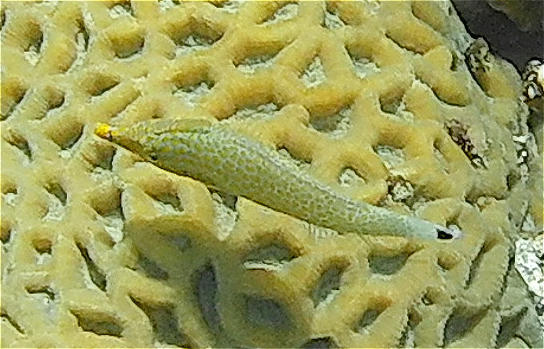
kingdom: Animalia
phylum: Chordata
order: Tetraodontiformes
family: Monacanthidae
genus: Oxymonacanthus
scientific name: Oxymonacanthus halli
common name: Red sea harlequin filefish
